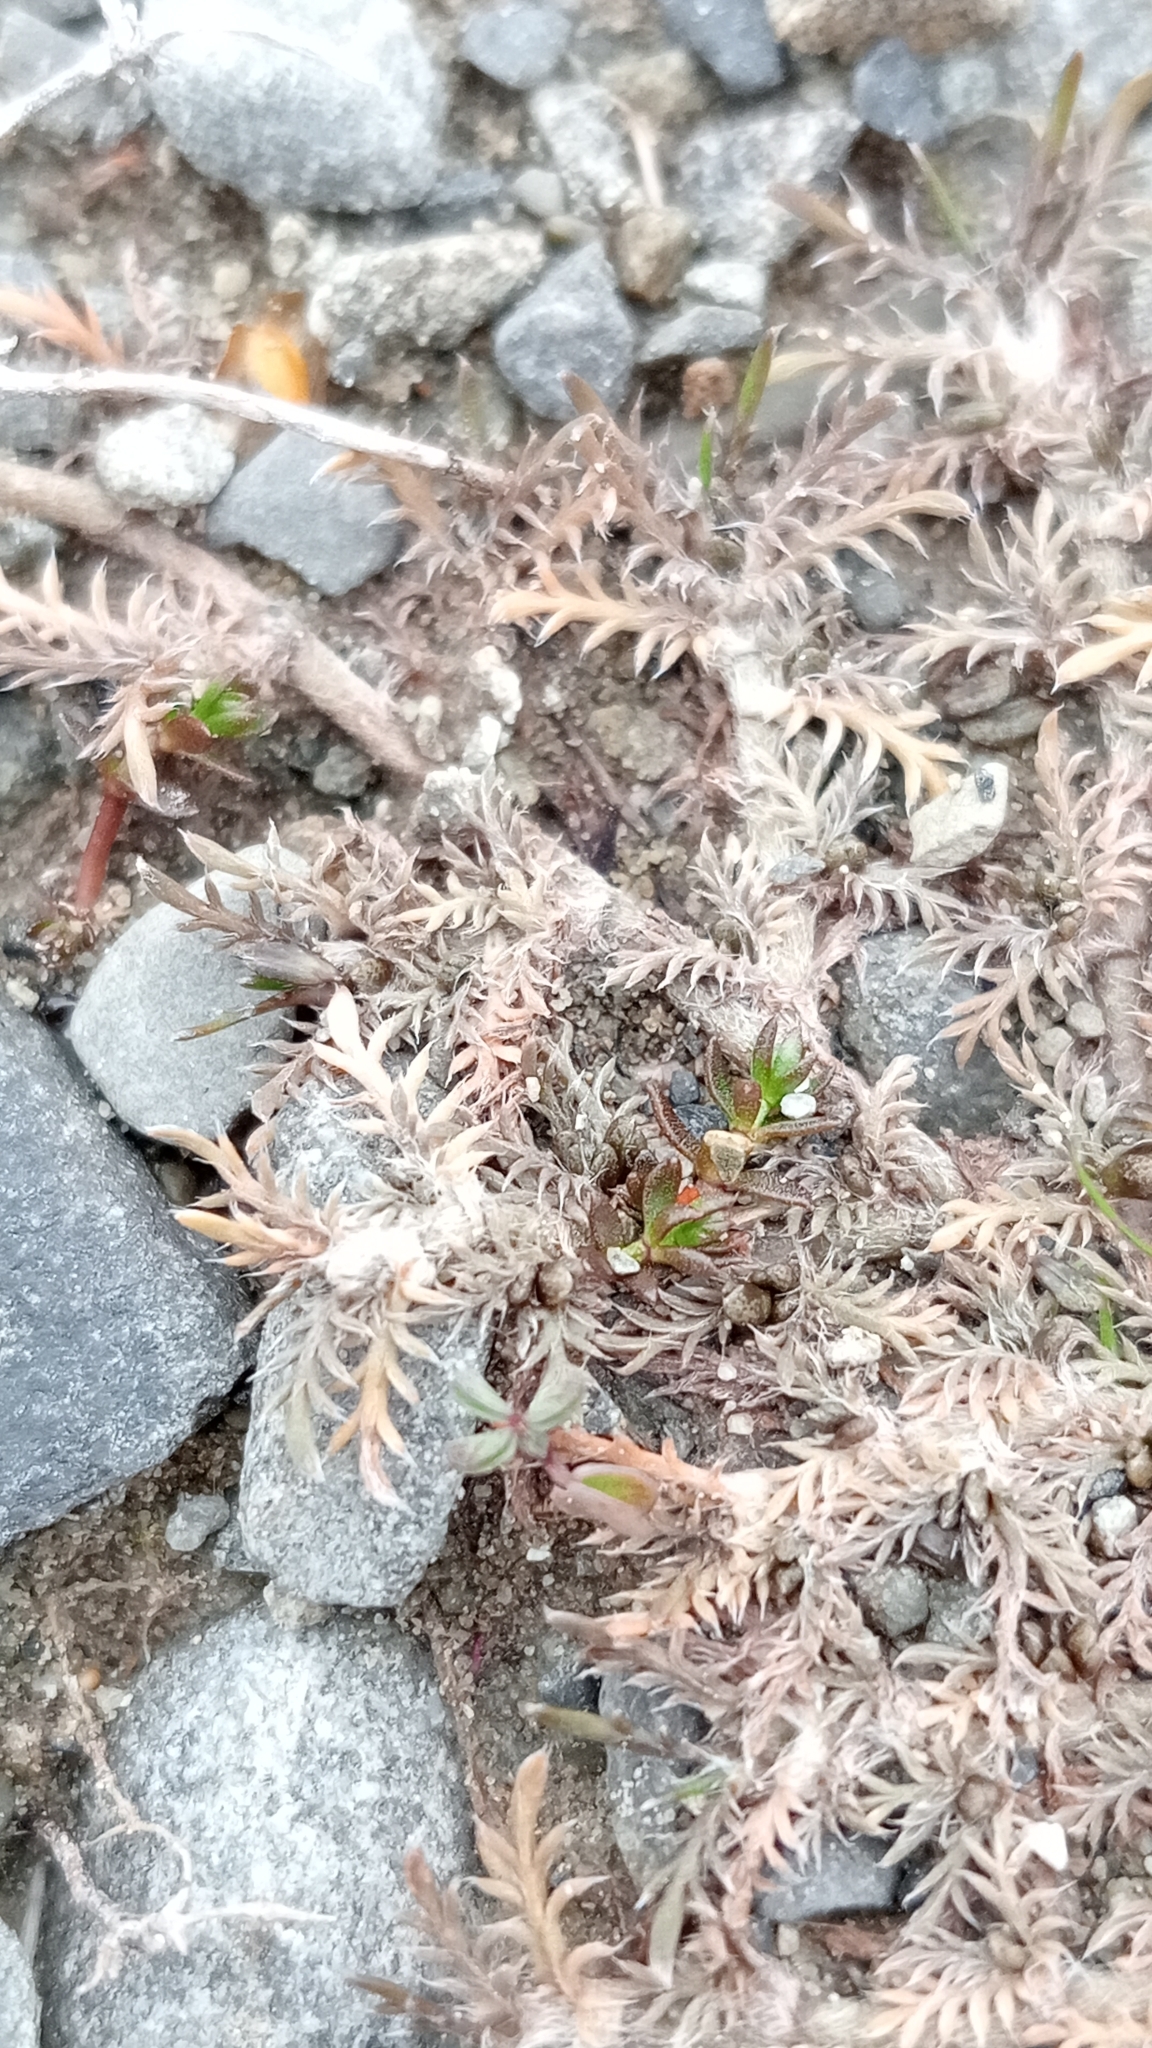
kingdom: Plantae
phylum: Tracheophyta
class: Magnoliopsida
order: Asterales
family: Asteraceae
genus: Leptinella
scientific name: Leptinella maniototo
